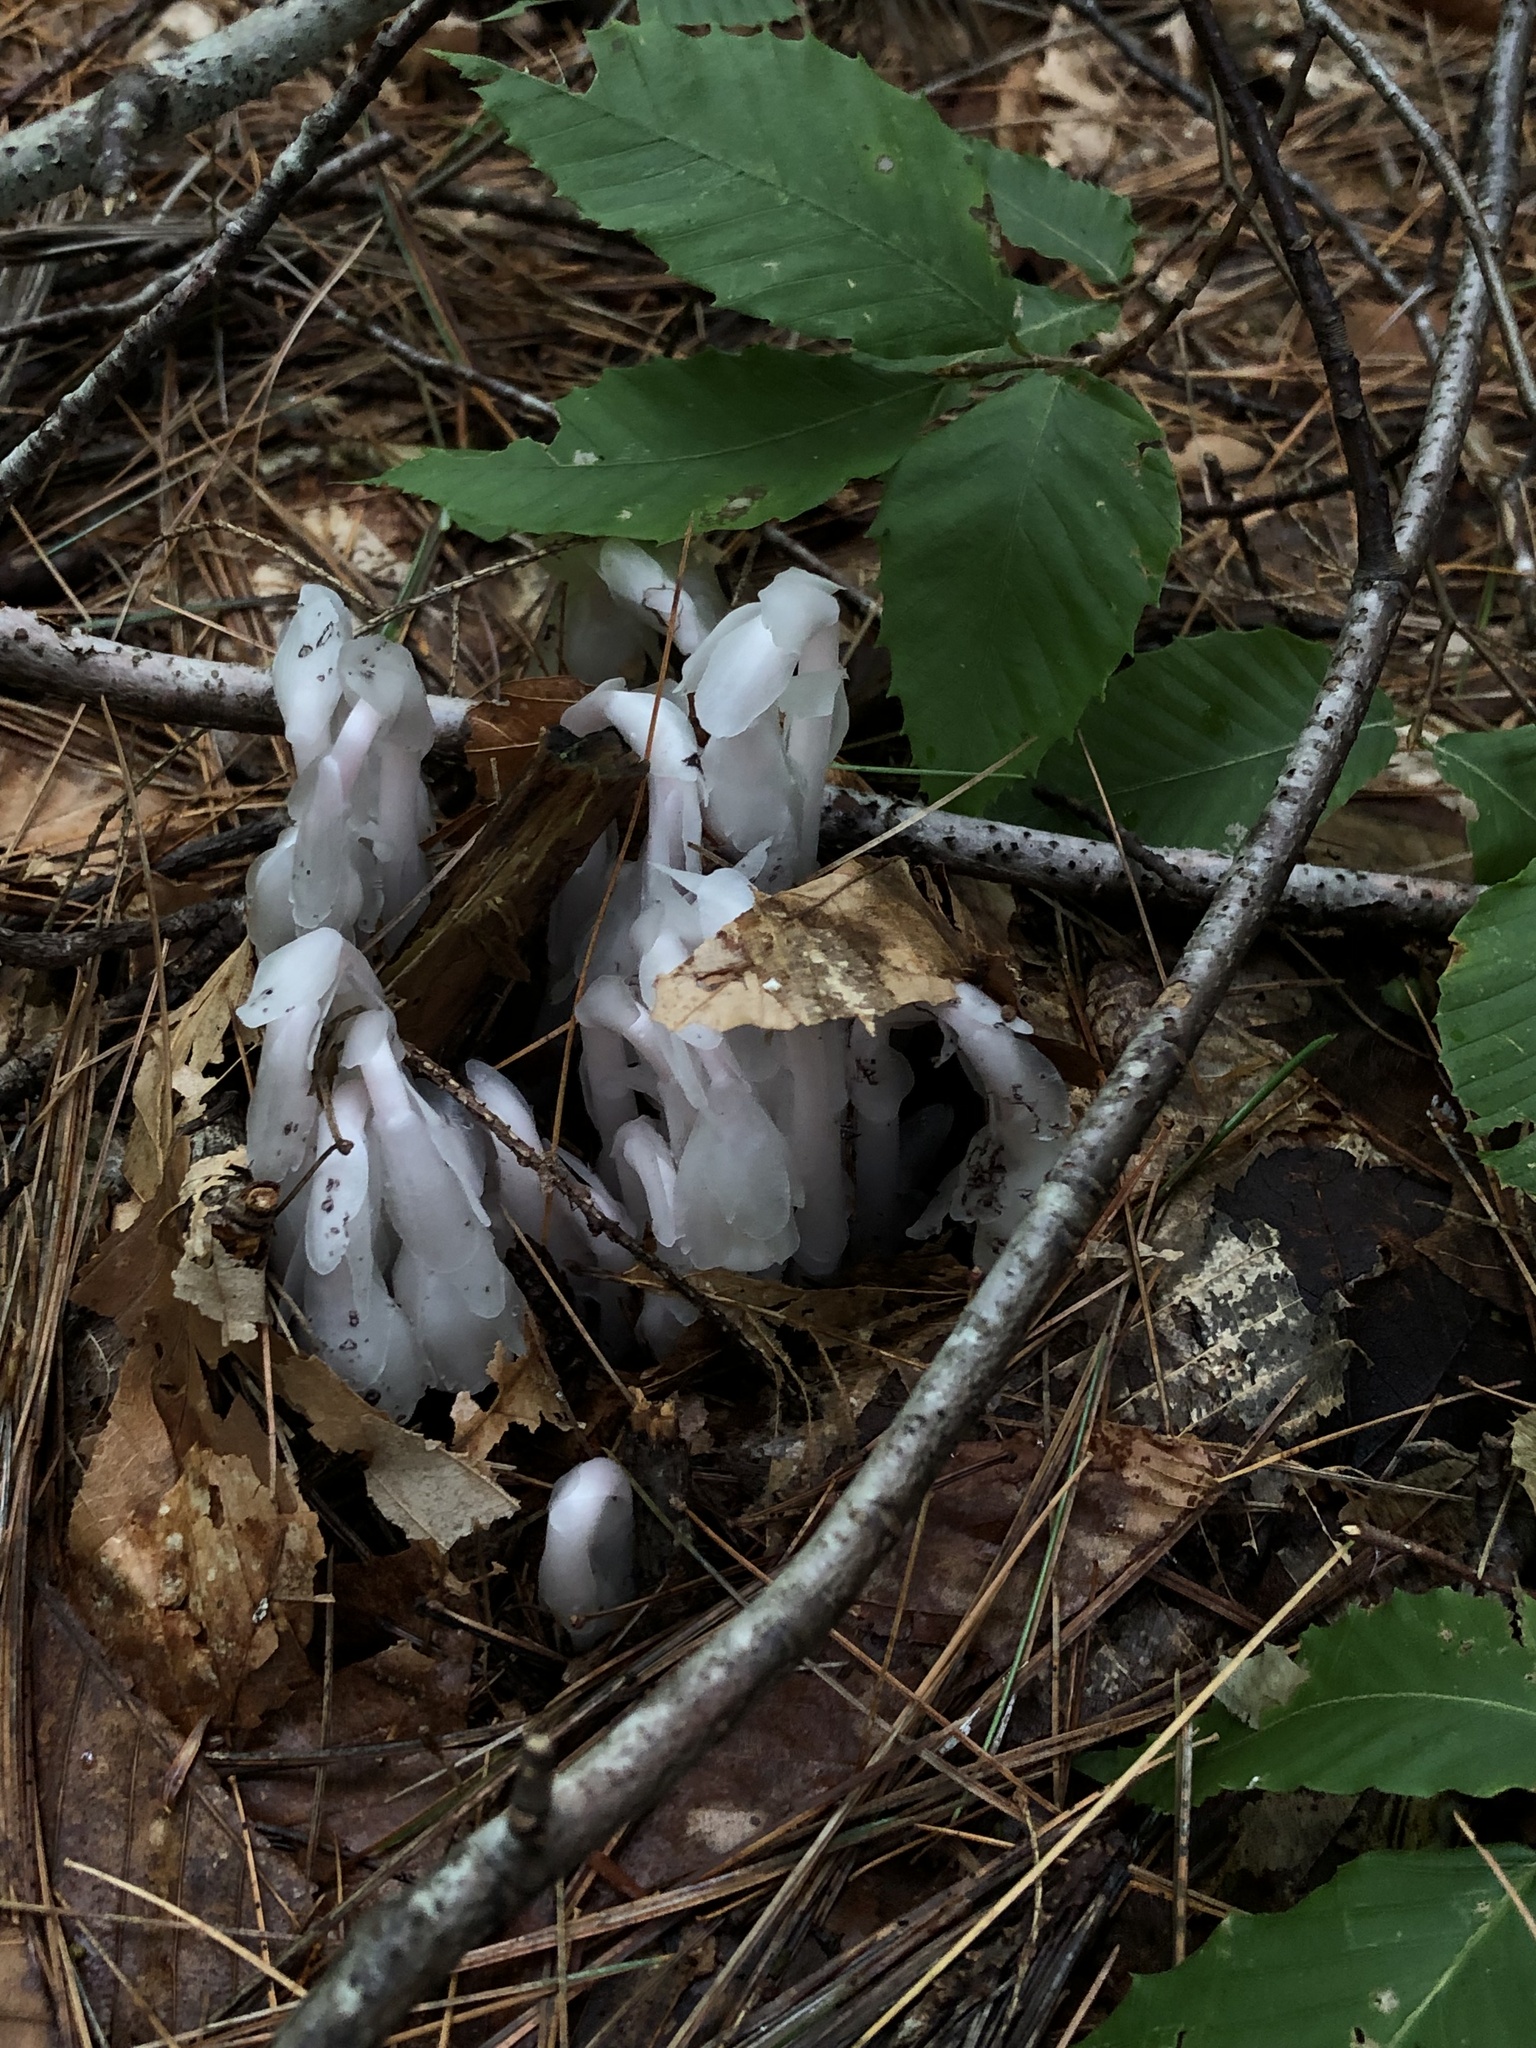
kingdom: Plantae
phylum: Tracheophyta
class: Magnoliopsida
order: Ericales
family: Ericaceae
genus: Monotropa
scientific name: Monotropa uniflora
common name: Convulsion root
